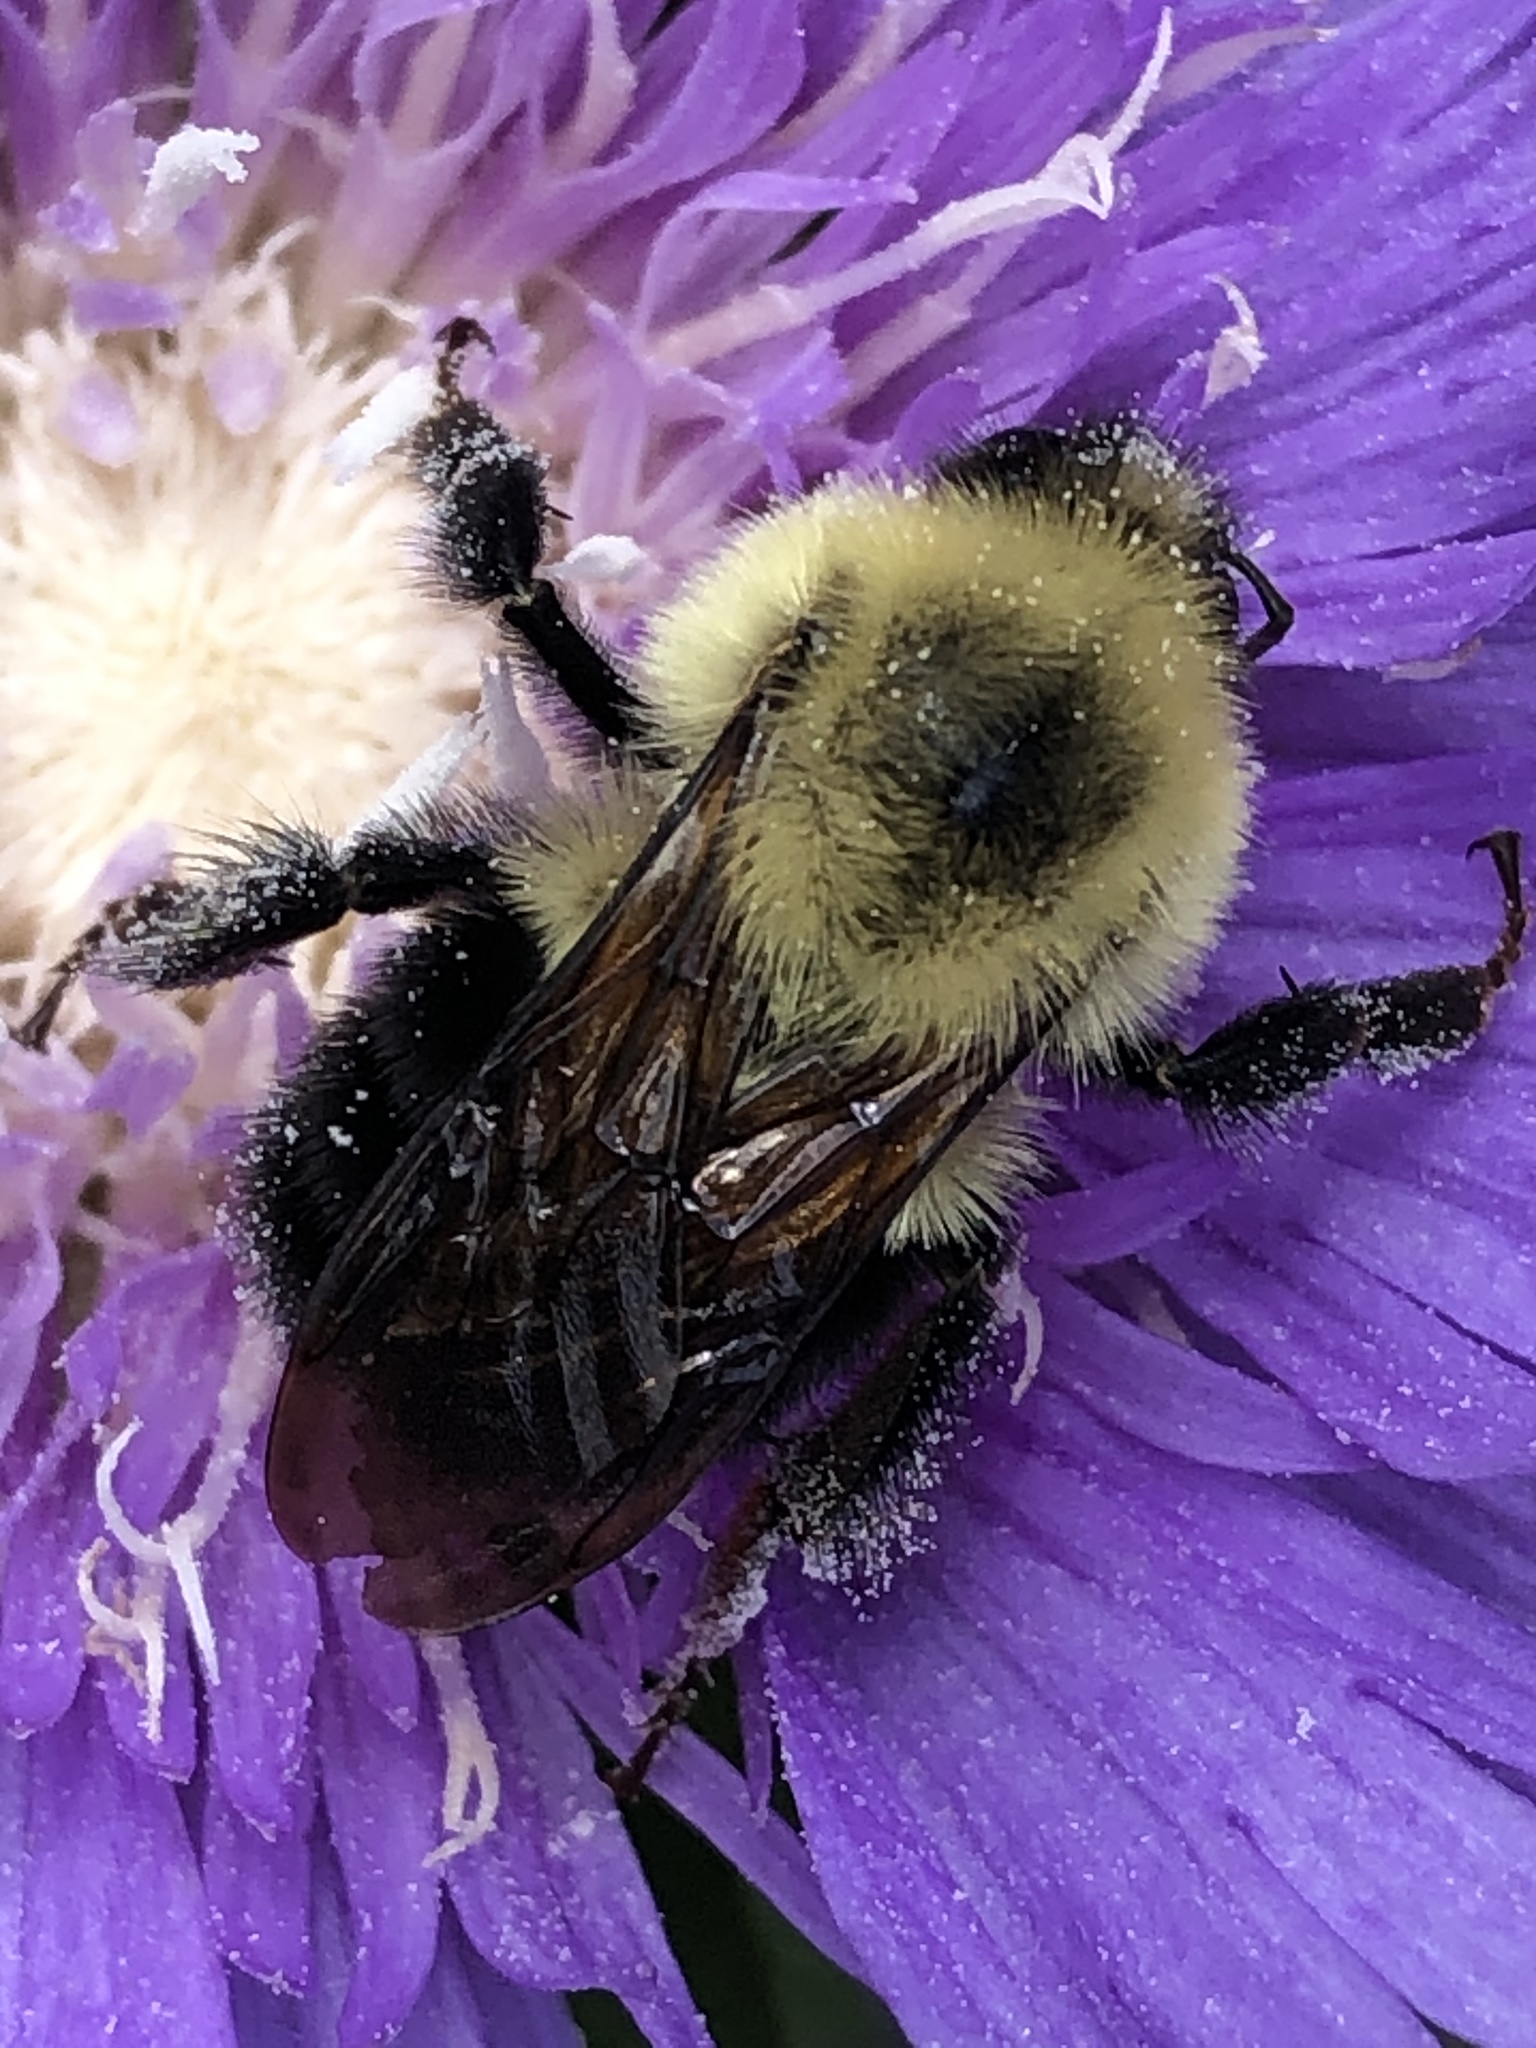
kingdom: Animalia
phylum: Arthropoda
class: Insecta
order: Hymenoptera
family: Apidae
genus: Bombus
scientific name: Bombus bimaculatus
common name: Two-spotted bumble bee
